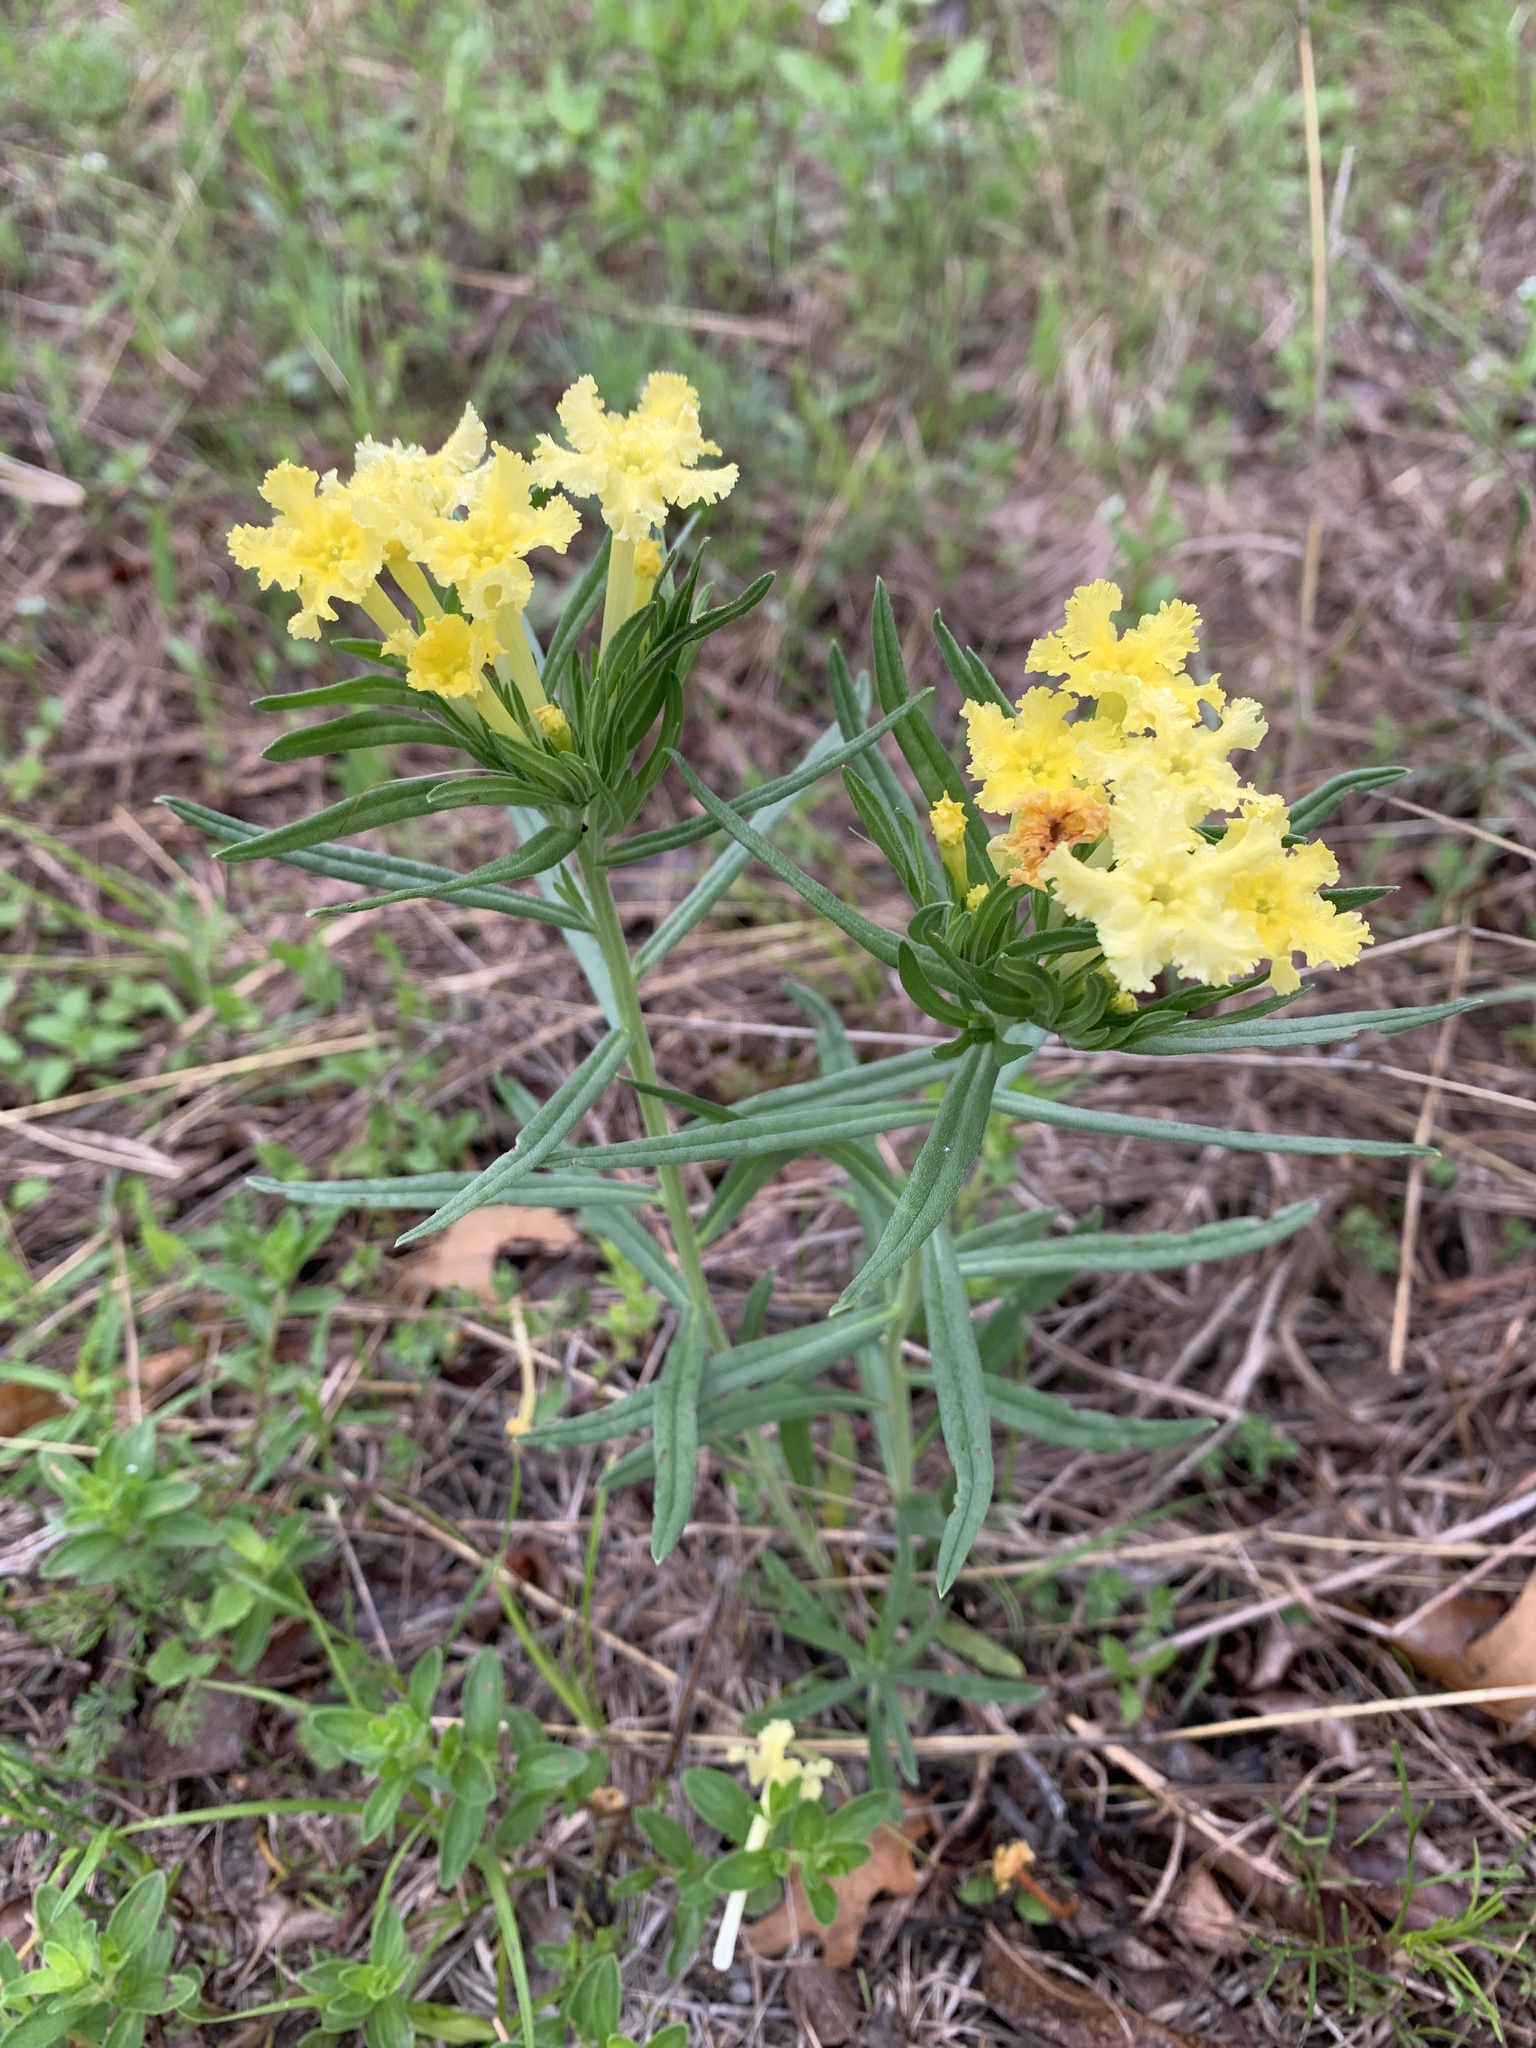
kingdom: Plantae
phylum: Tracheophyta
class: Magnoliopsida
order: Boraginales
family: Boraginaceae
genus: Lithospermum
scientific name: Lithospermum incisum
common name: Fringed gromwell
